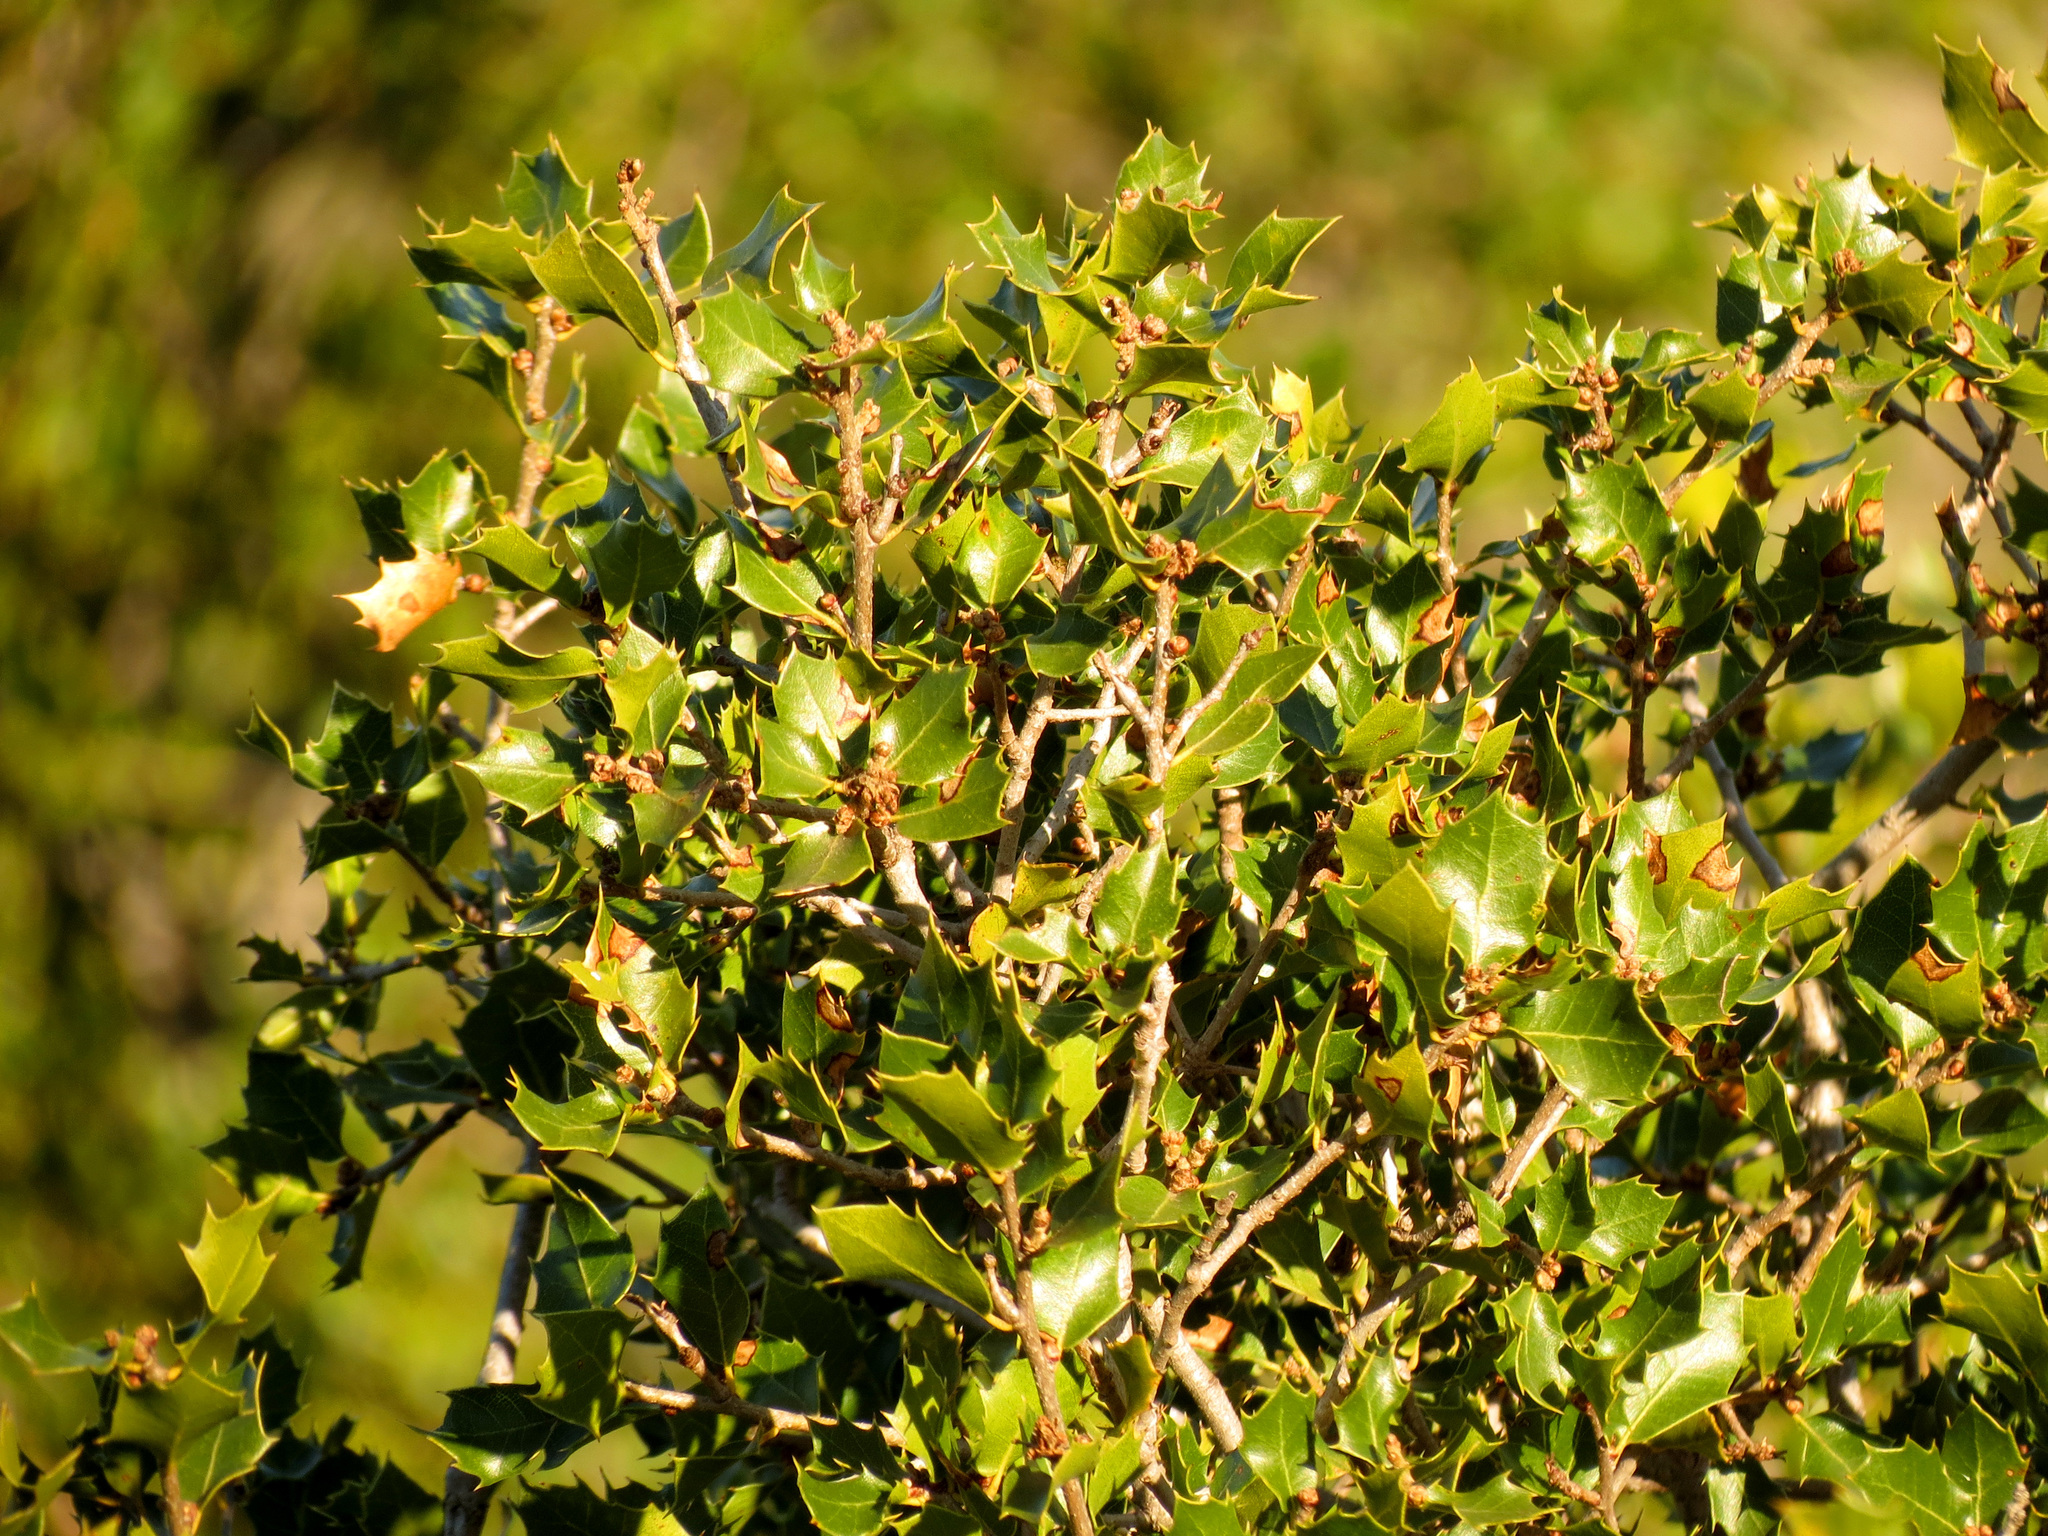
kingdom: Plantae
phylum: Tracheophyta
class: Magnoliopsida
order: Fagales
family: Fagaceae
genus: Quercus
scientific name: Quercus coccifera
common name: Kermes oak
